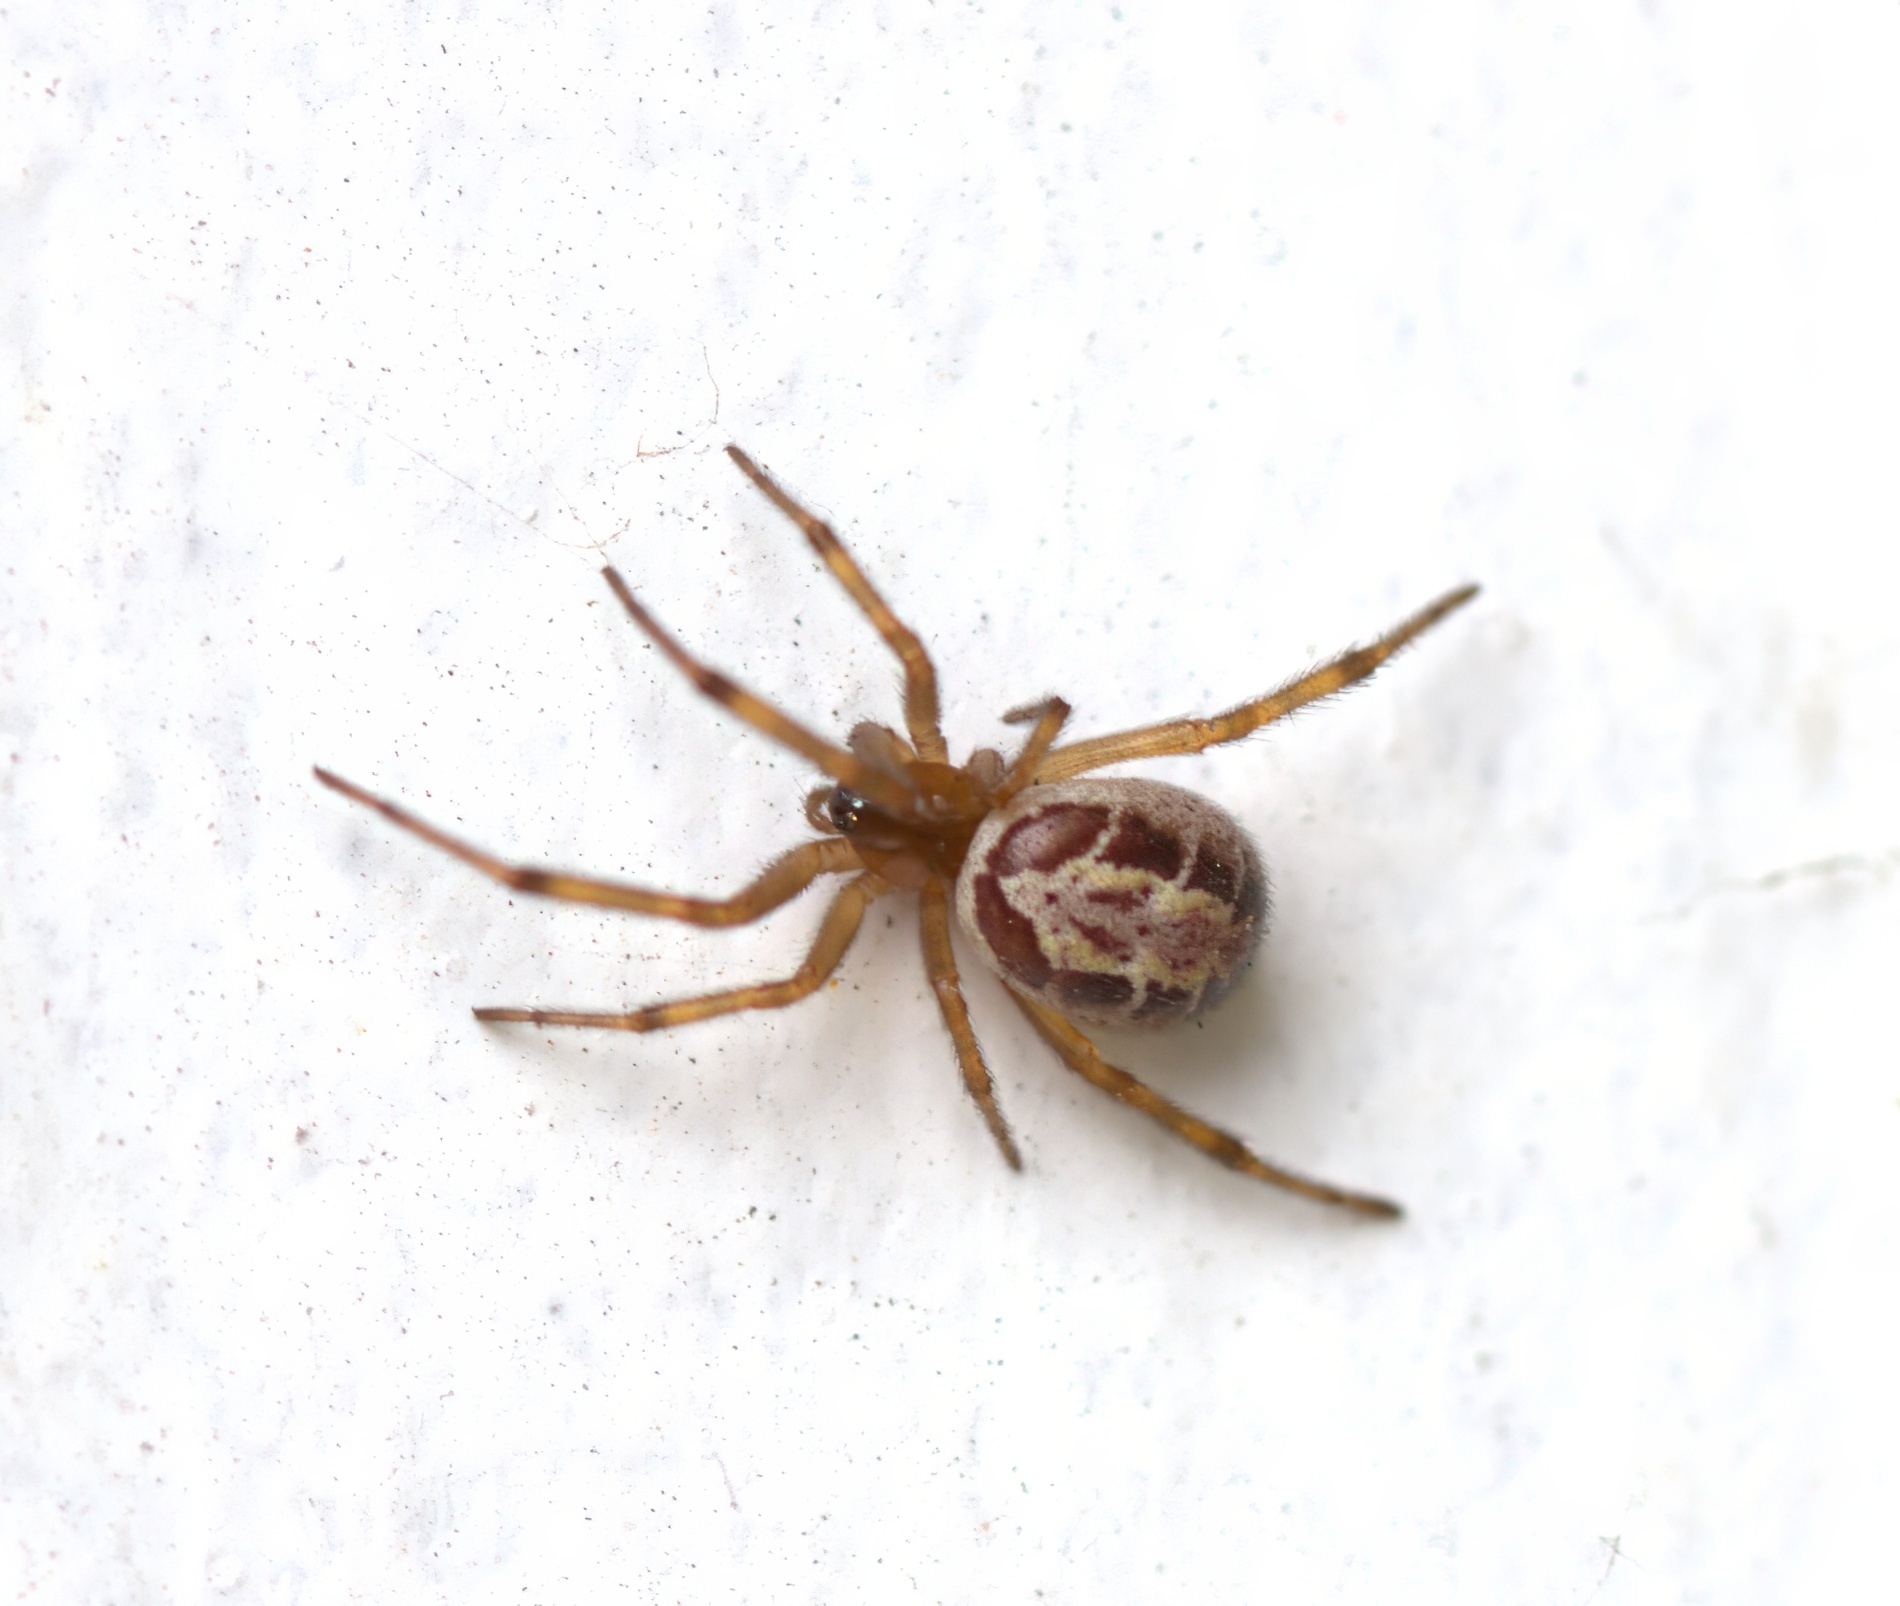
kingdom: Animalia
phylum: Arthropoda
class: Arachnida
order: Araneae
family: Theridiidae
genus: Steatoda
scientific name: Steatoda nobilis
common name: Cobweb weaver
